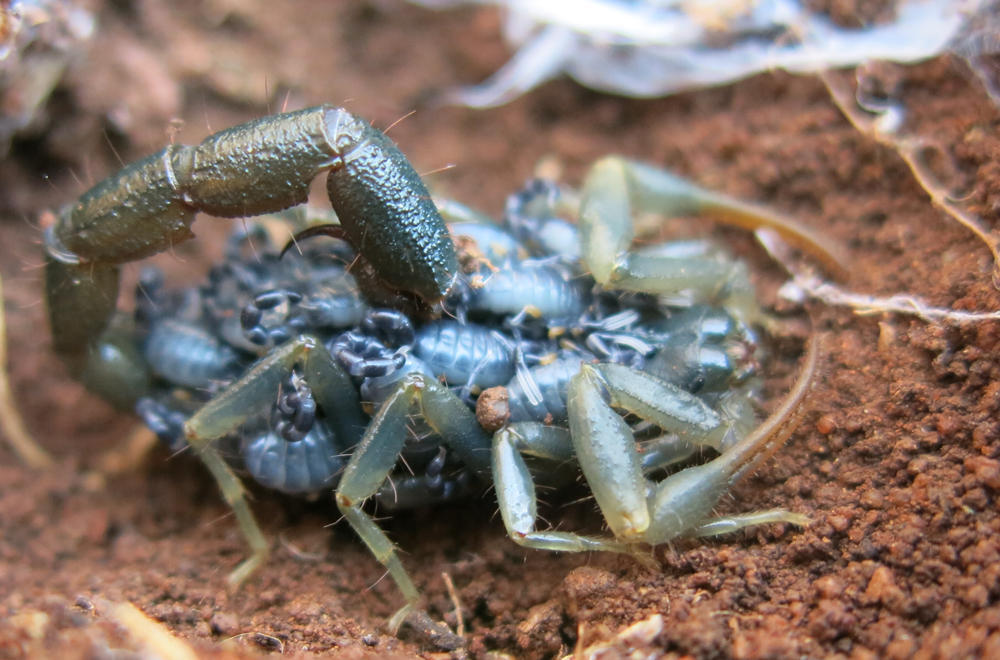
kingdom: Animalia
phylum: Arthropoda
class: Arachnida
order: Scorpiones
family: Buthidae
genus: Uroplectes
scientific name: Uroplectes flavoviridis
